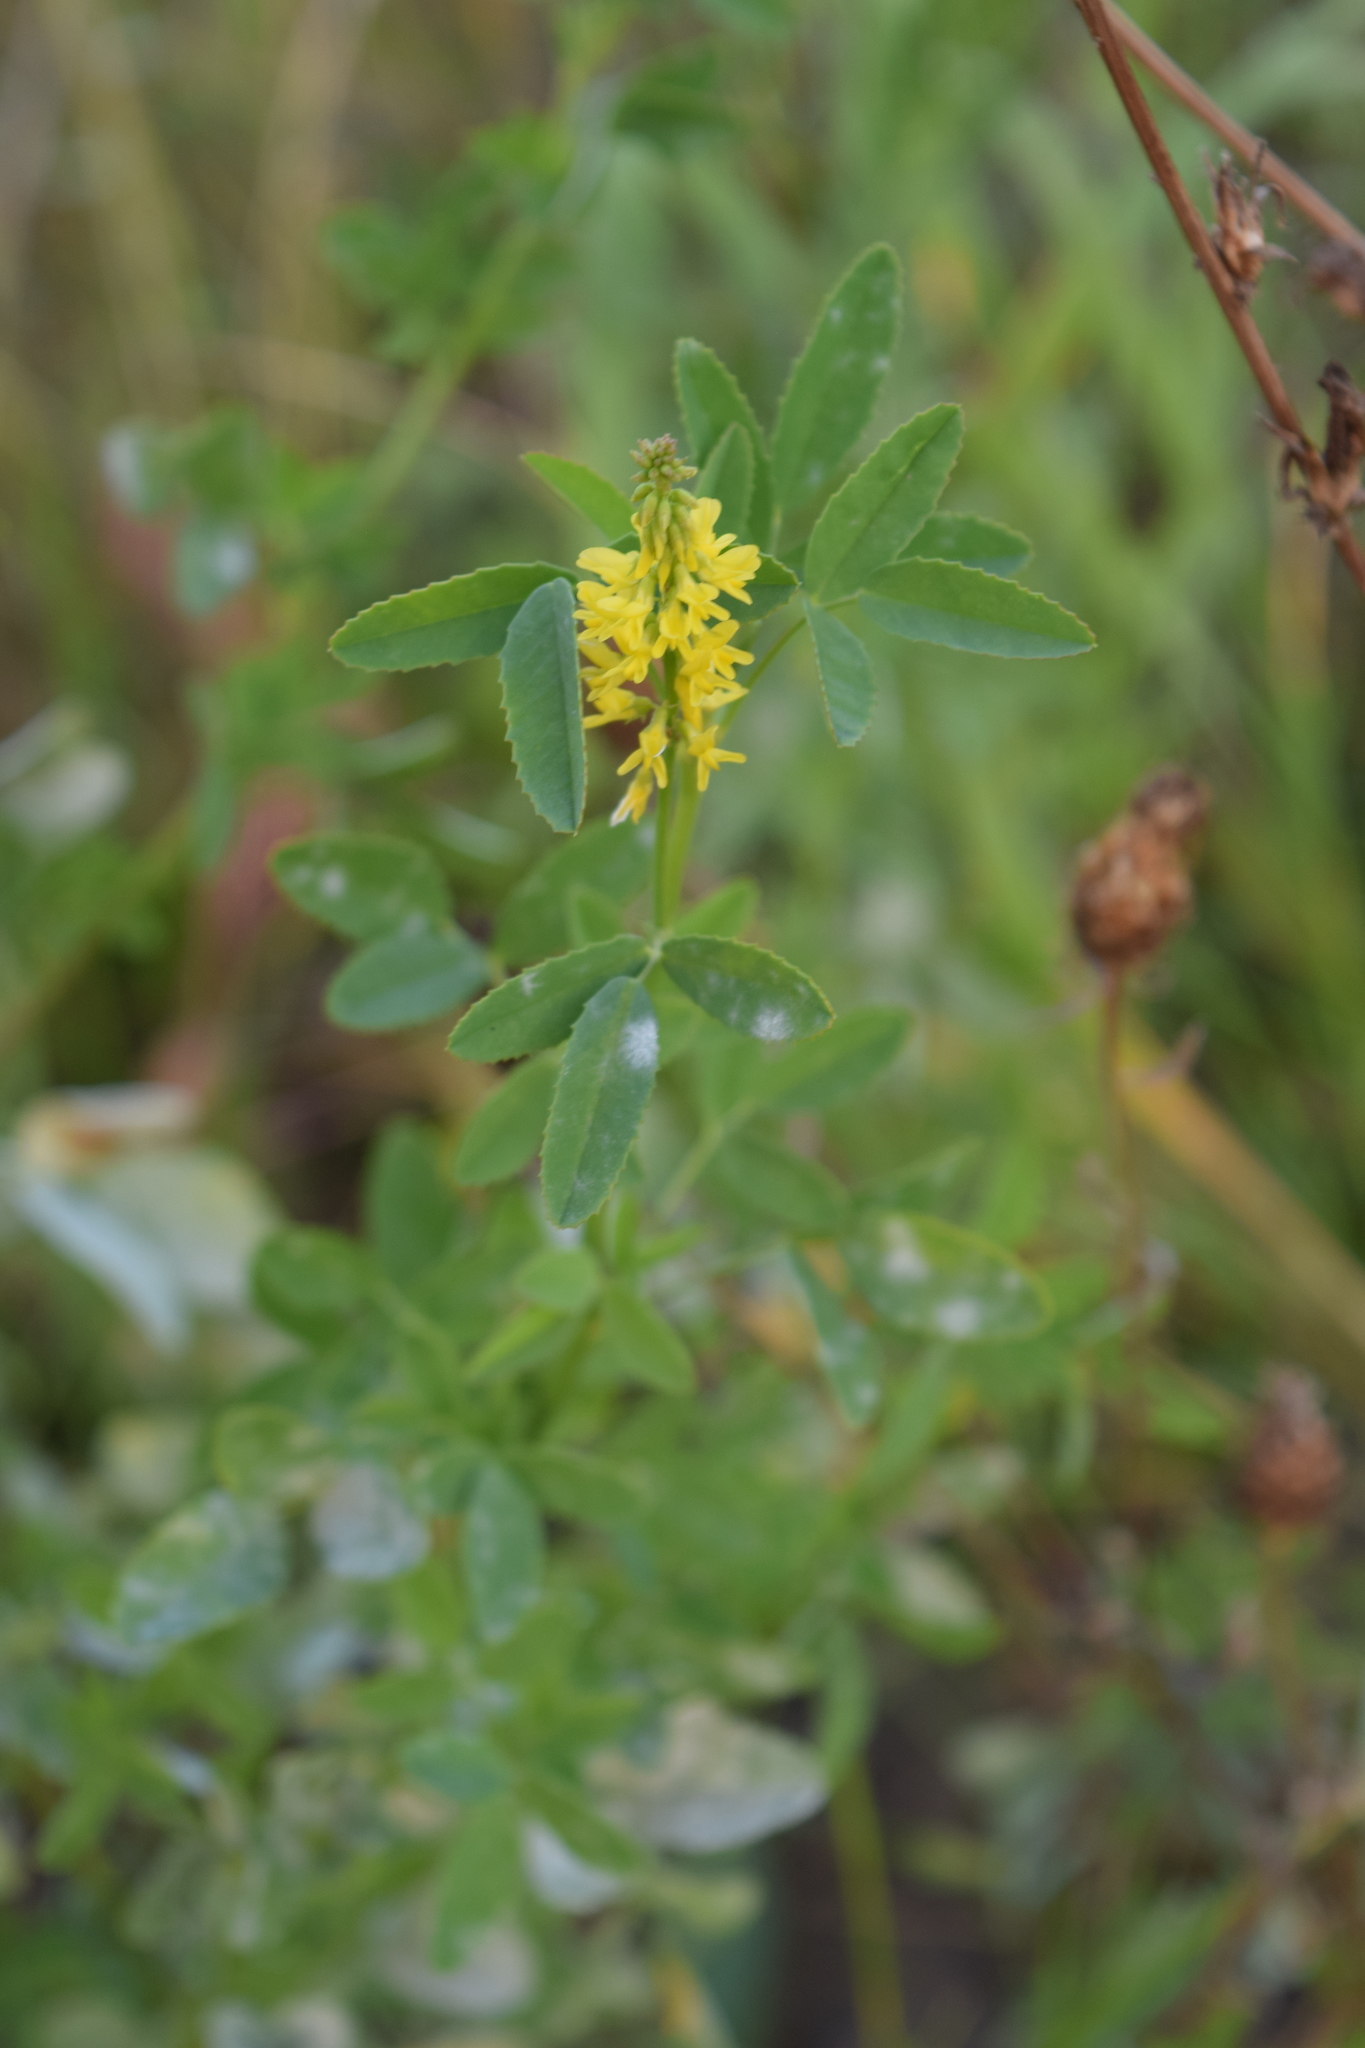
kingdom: Plantae
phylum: Tracheophyta
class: Magnoliopsida
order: Fabales
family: Fabaceae
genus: Melilotus
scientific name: Melilotus officinalis
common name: Sweetclover
